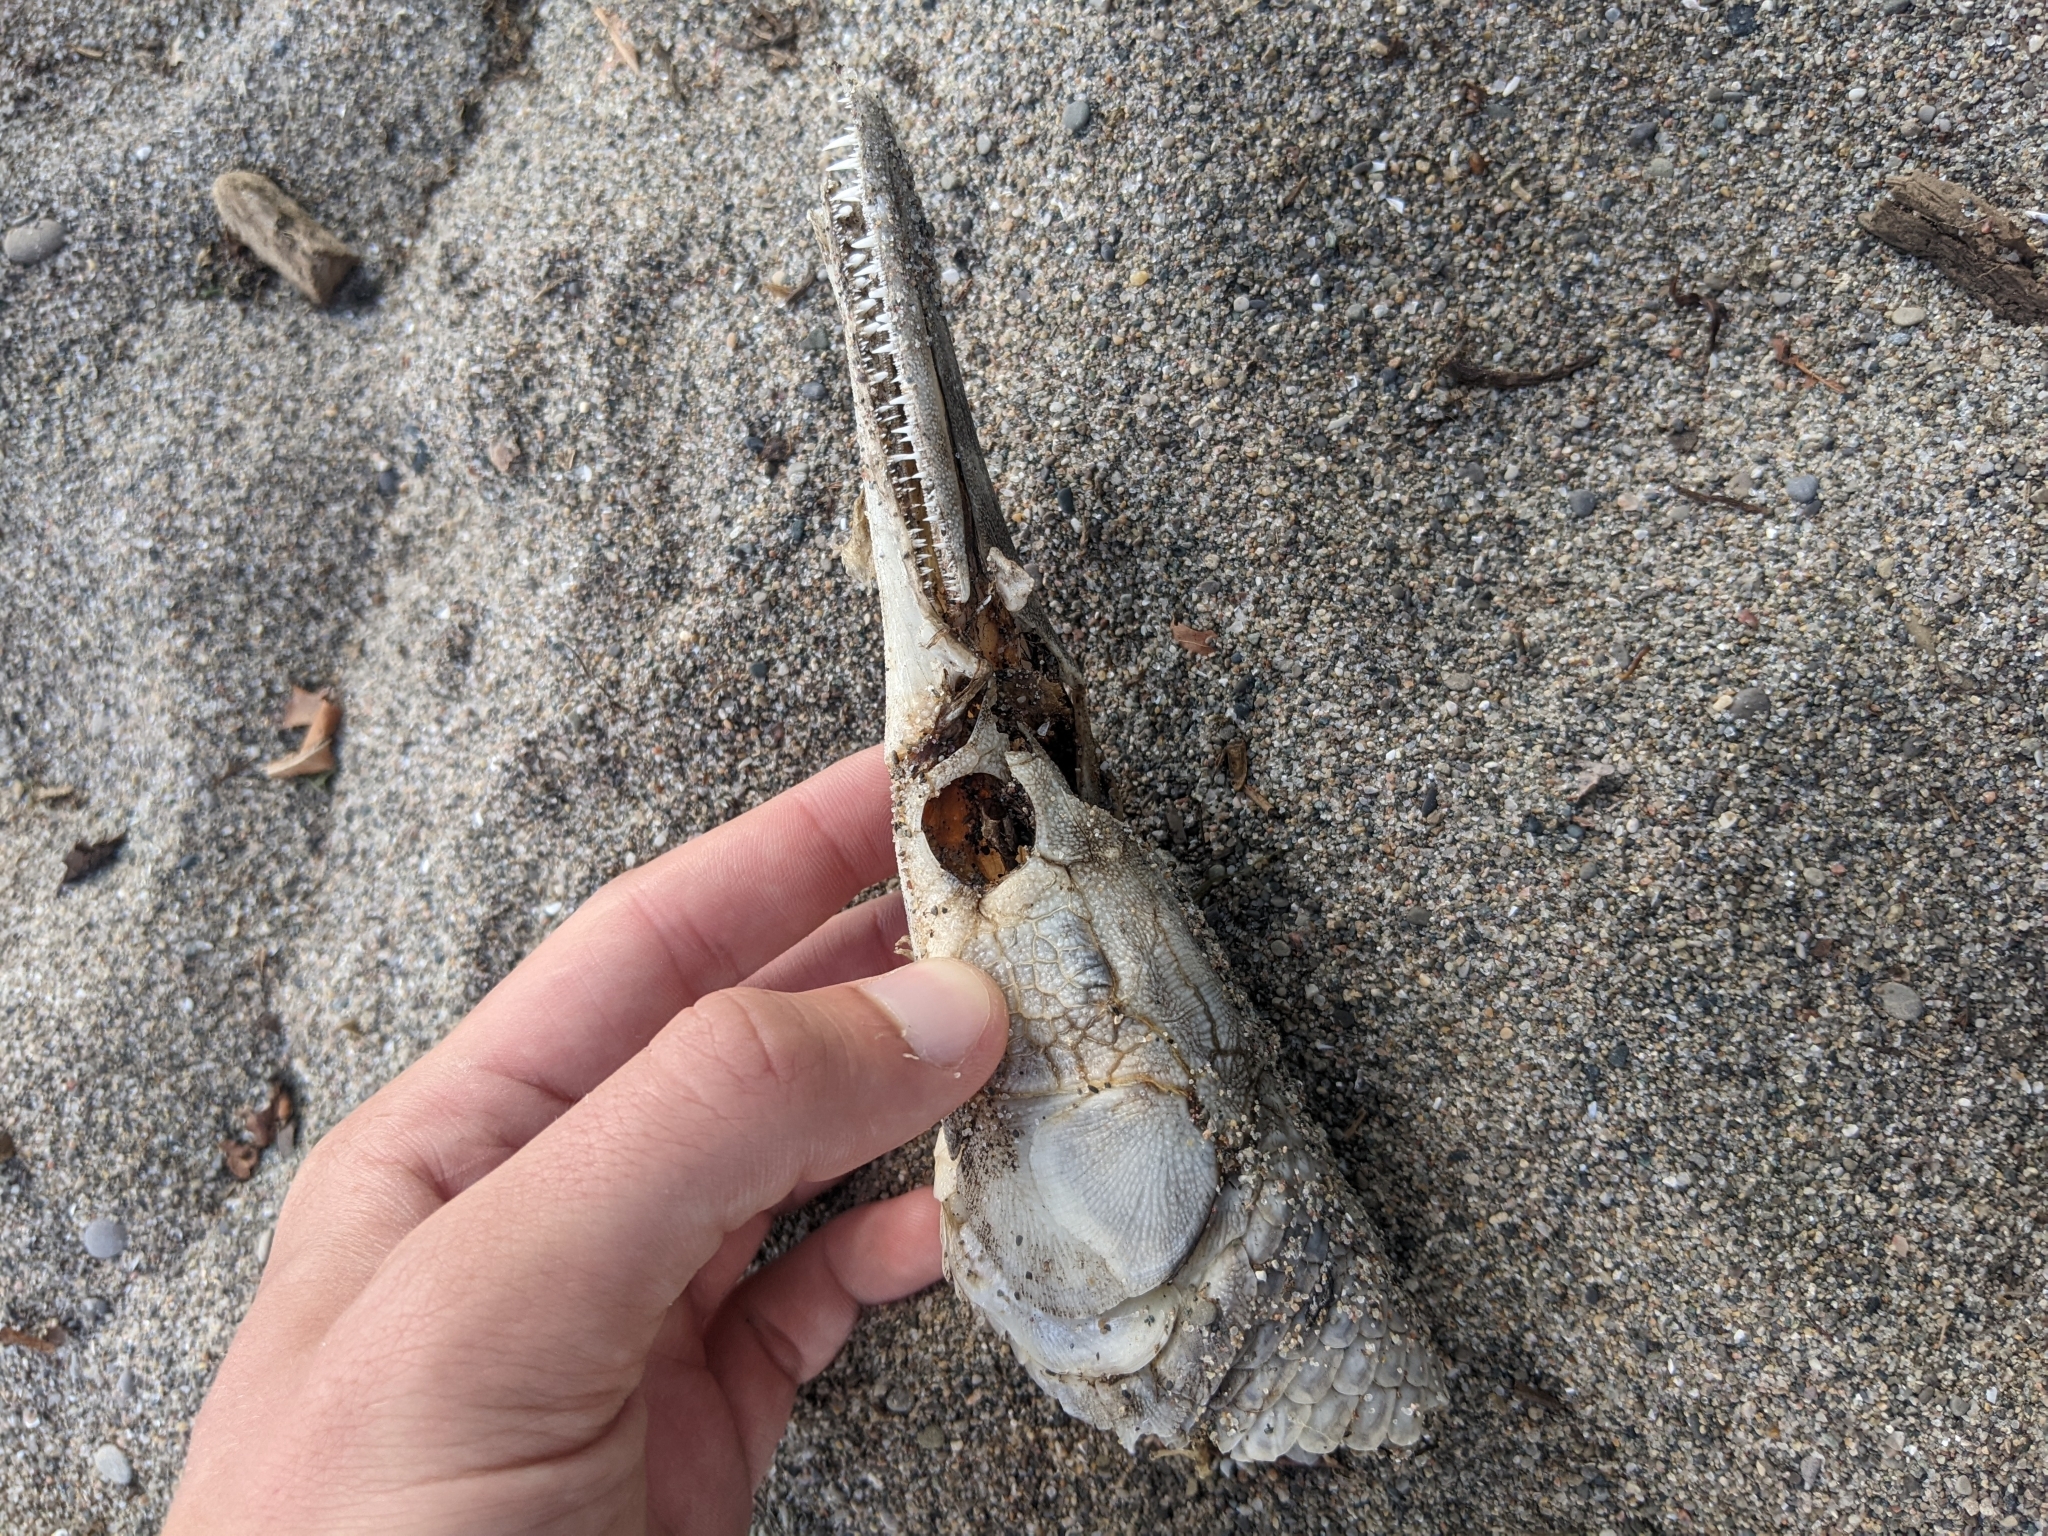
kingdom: Animalia
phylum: Chordata
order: Lepisosteiformes
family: Lepisosteidae
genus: Lepisosteus
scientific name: Lepisosteus oculatus
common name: Spotted gar
